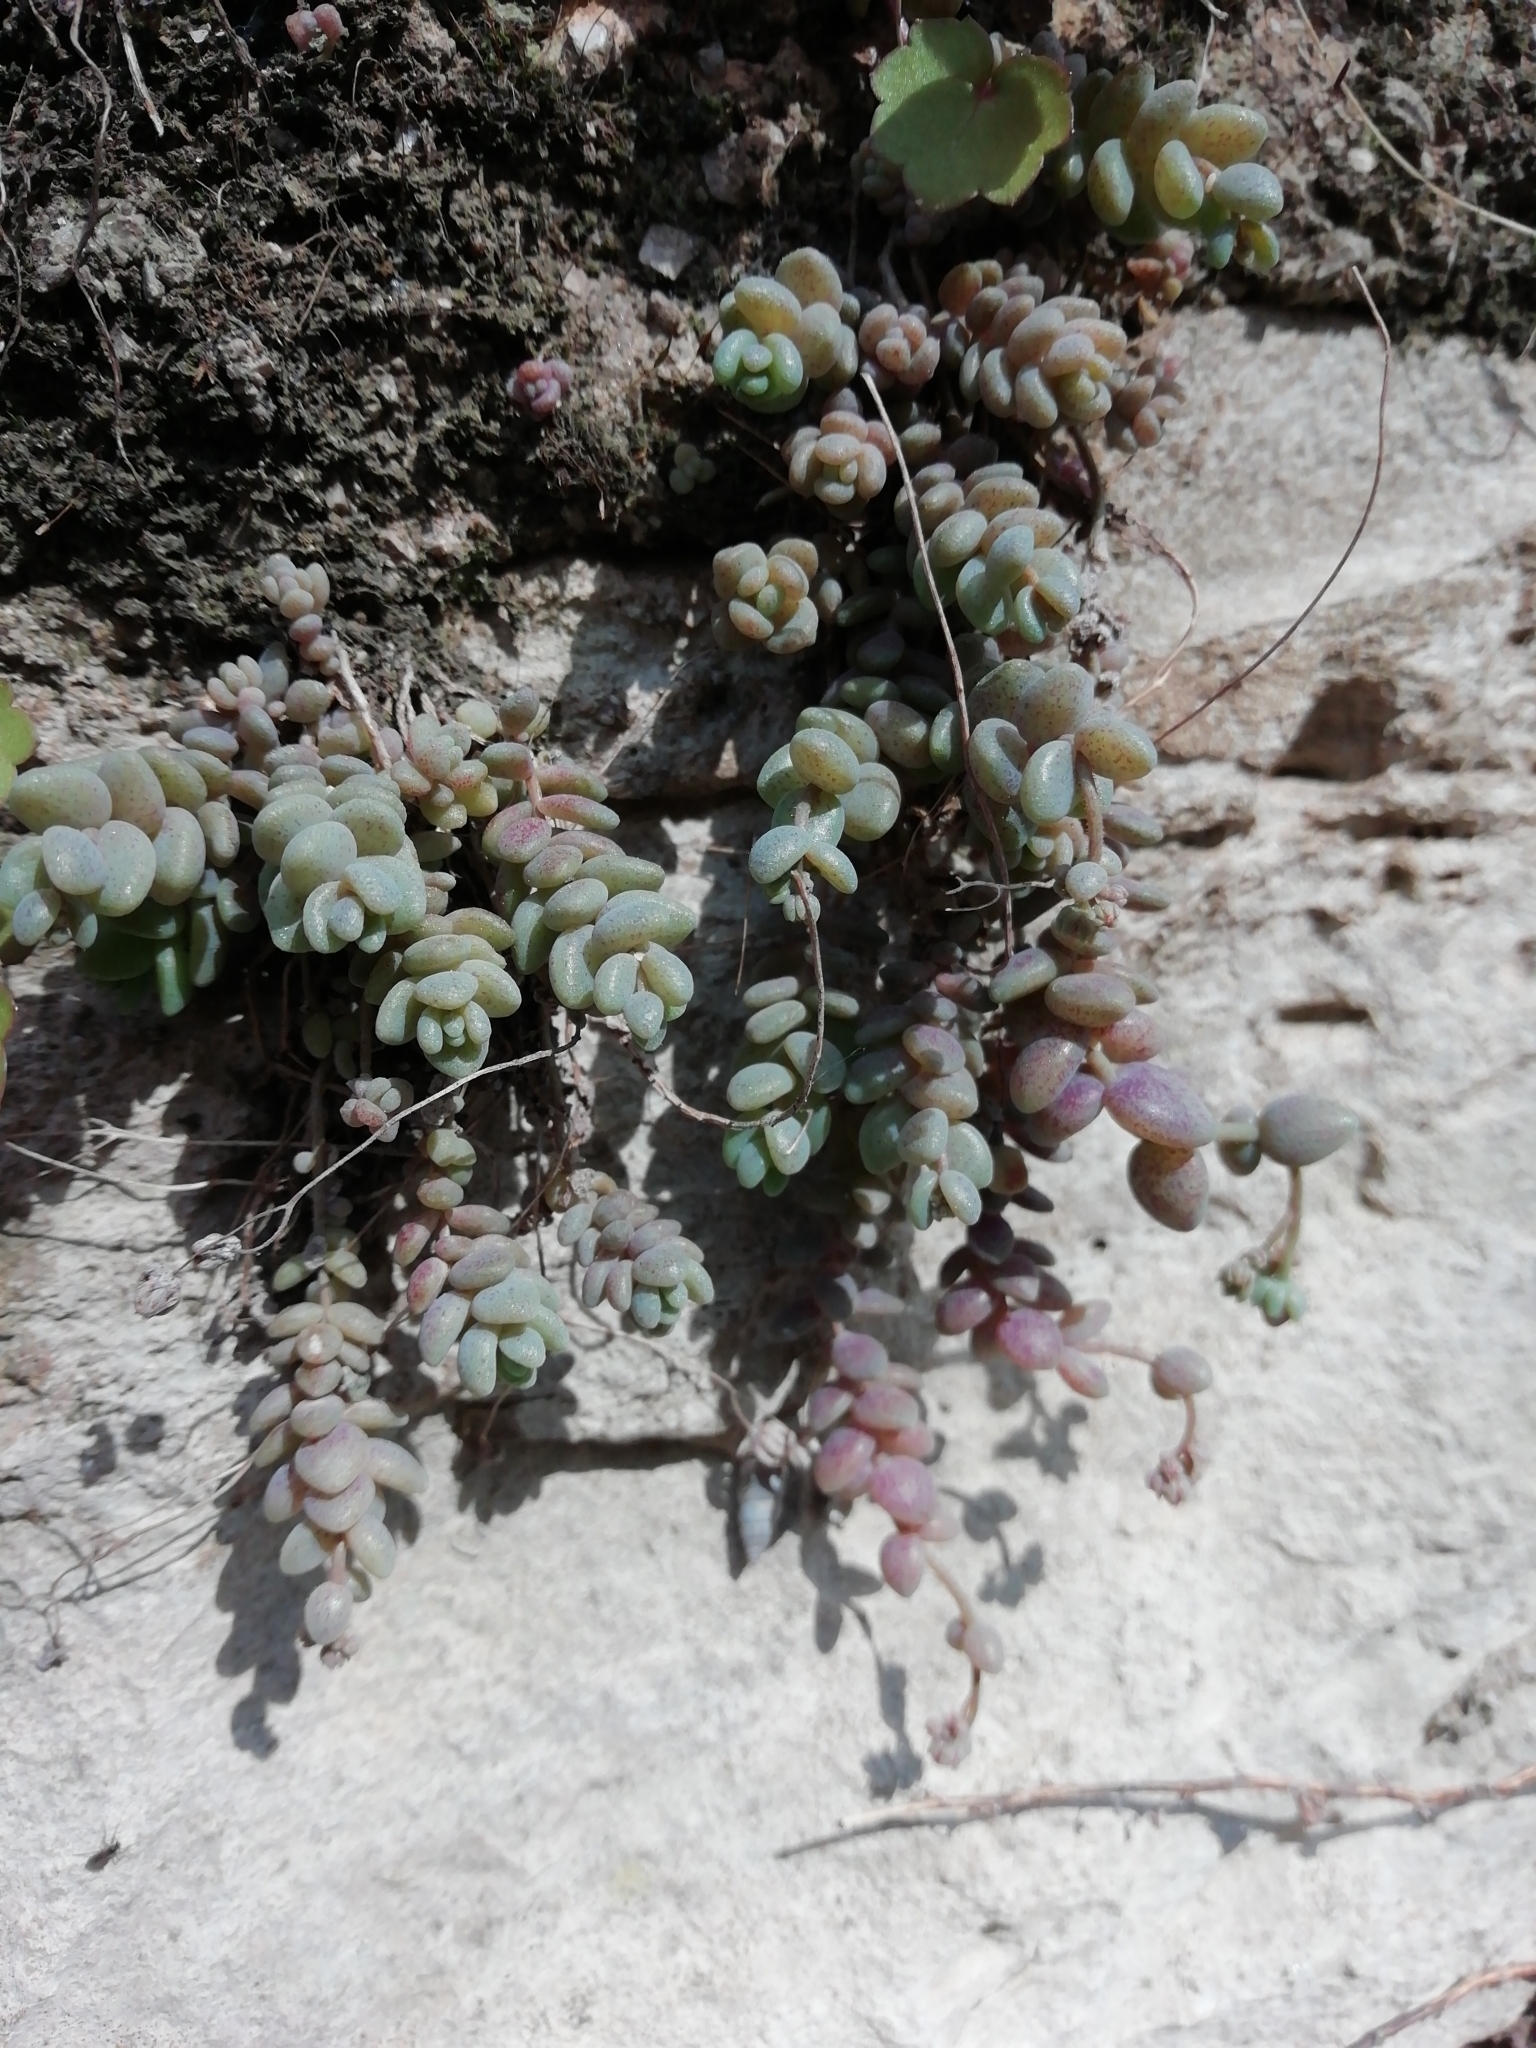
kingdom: Plantae
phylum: Tracheophyta
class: Magnoliopsida
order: Saxifragales
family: Crassulaceae
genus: Sedum
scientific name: Sedum dasyphyllum
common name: Thick-leaf stonecrop
